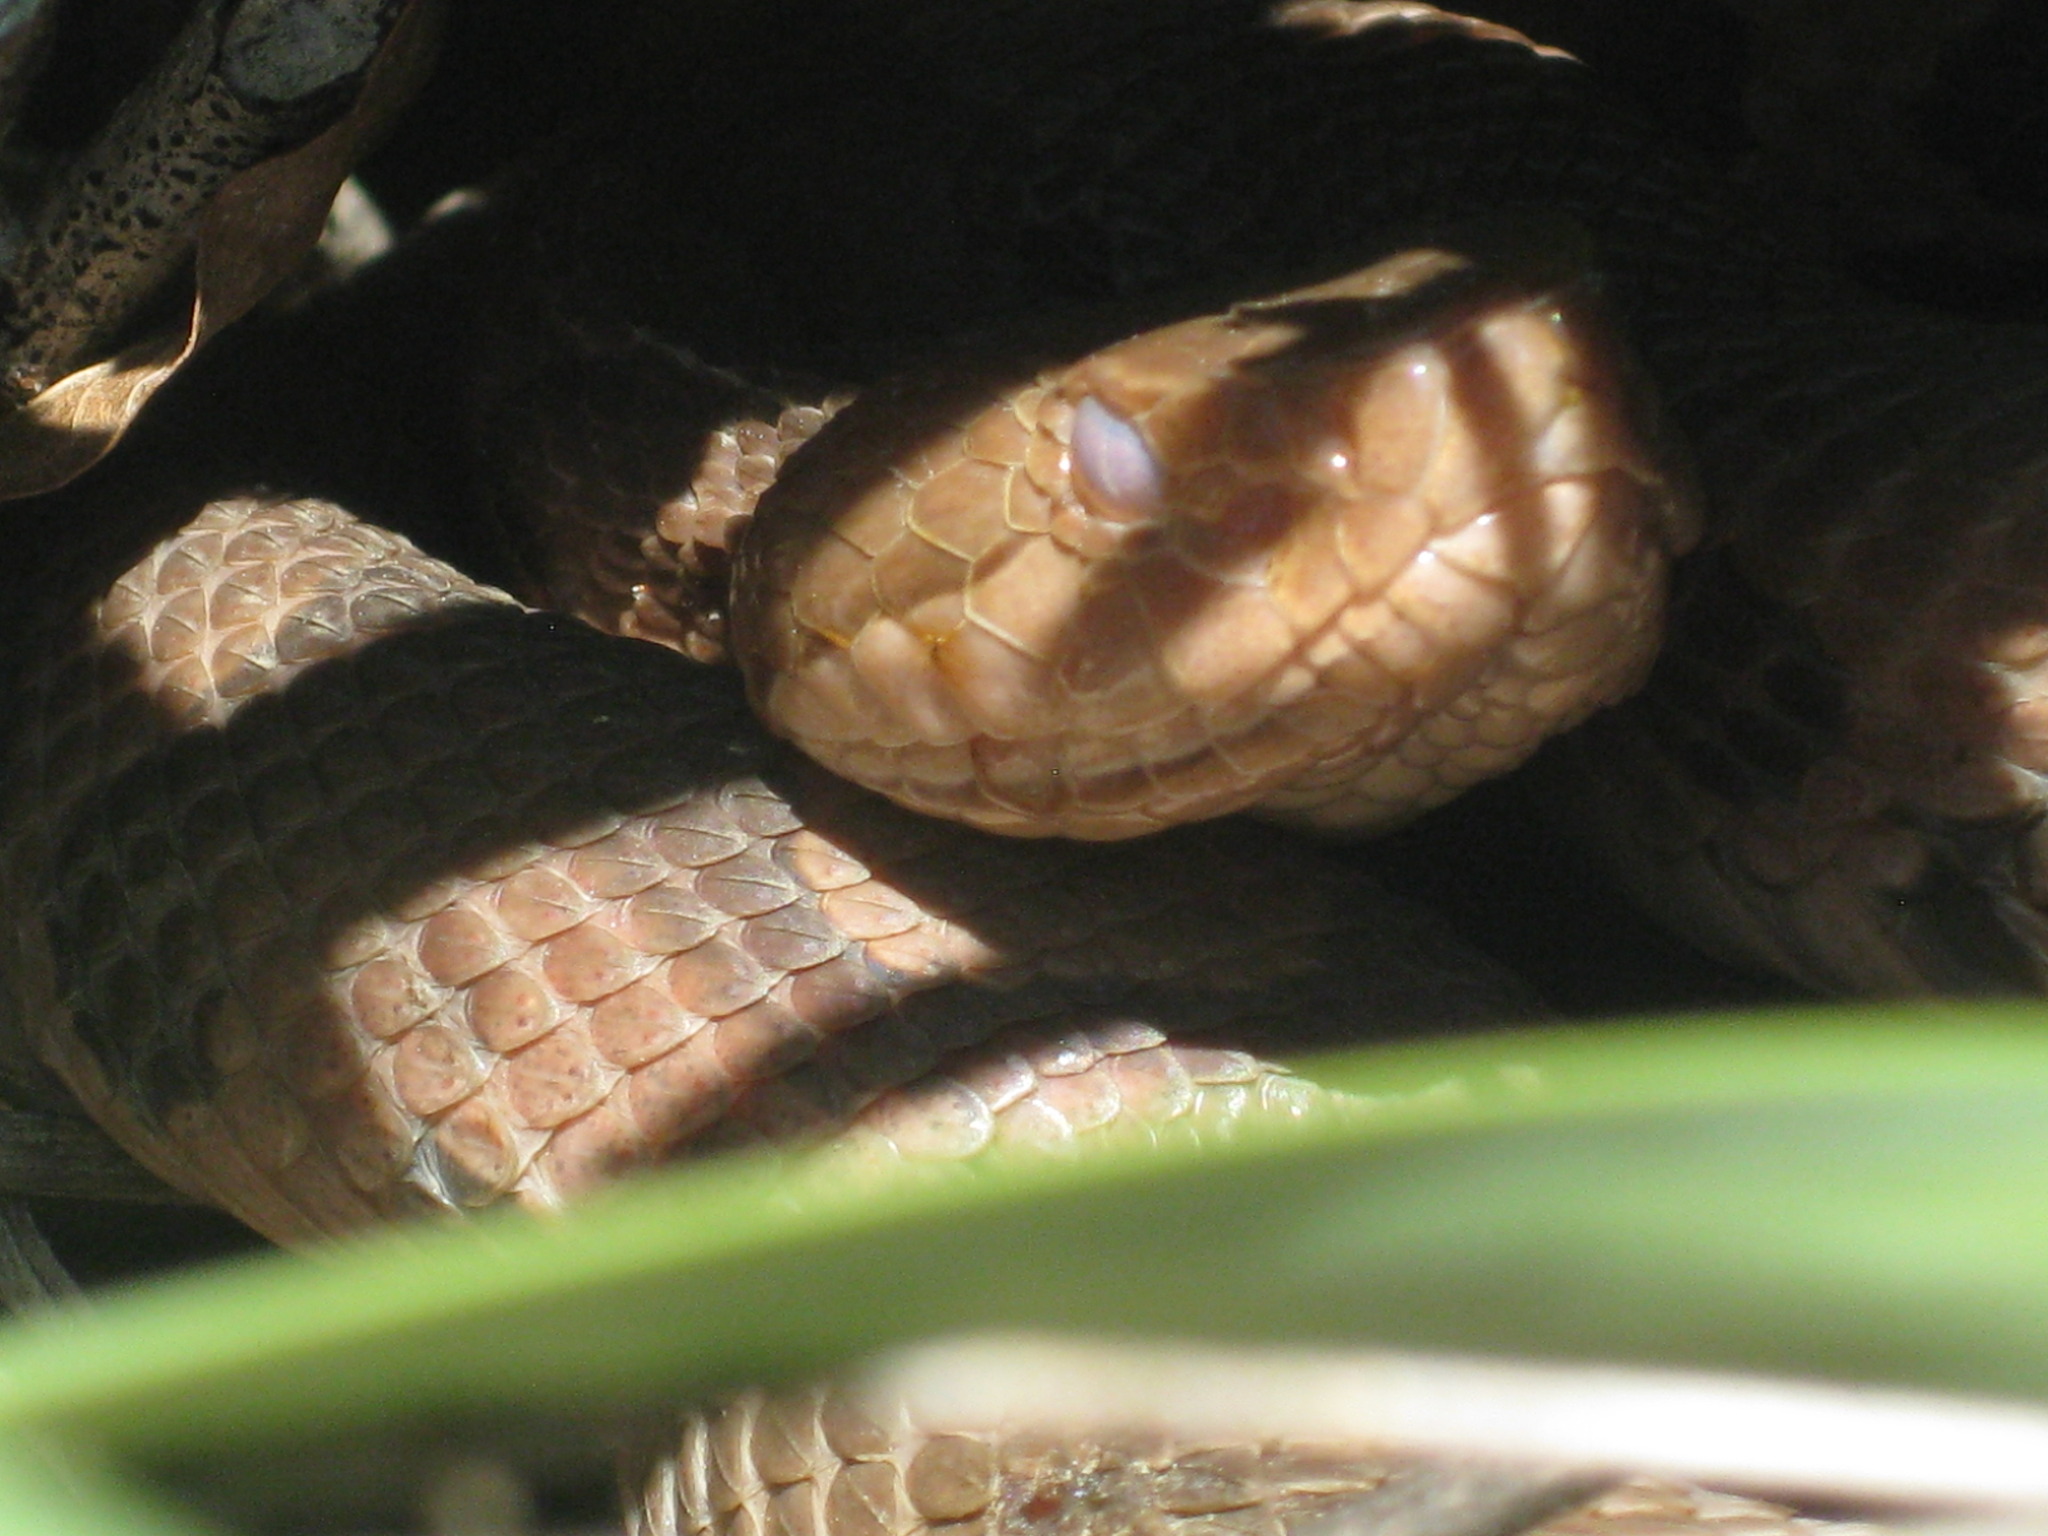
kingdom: Animalia
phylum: Chordata
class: Squamata
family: Viperidae
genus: Agkistrodon
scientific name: Agkistrodon contortrix
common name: Northern copperhead
